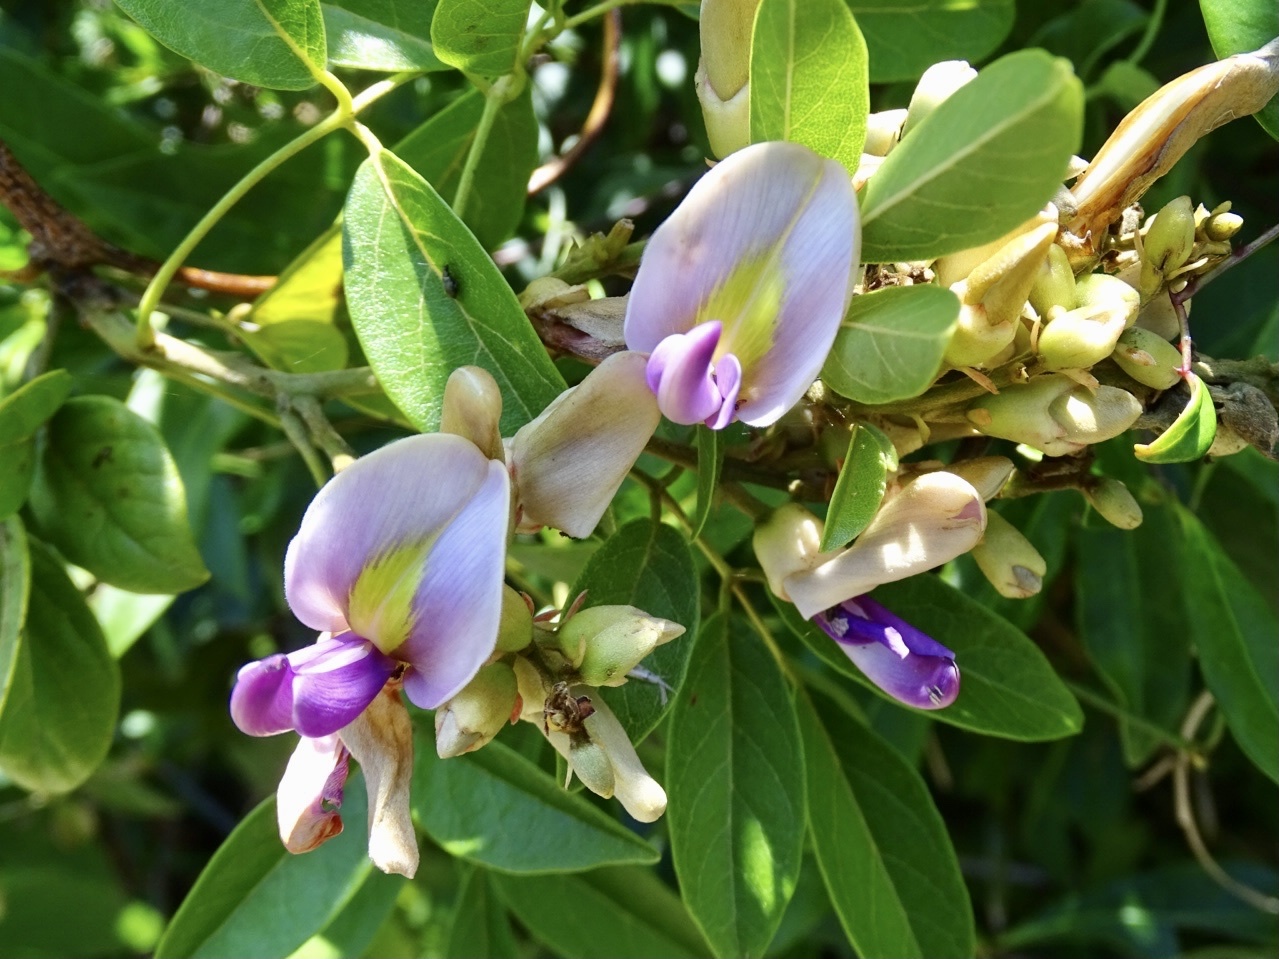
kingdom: Plantae
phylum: Tracheophyta
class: Magnoliopsida
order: Fabales
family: Fabaceae
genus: Callerya
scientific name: Callerya nitida
